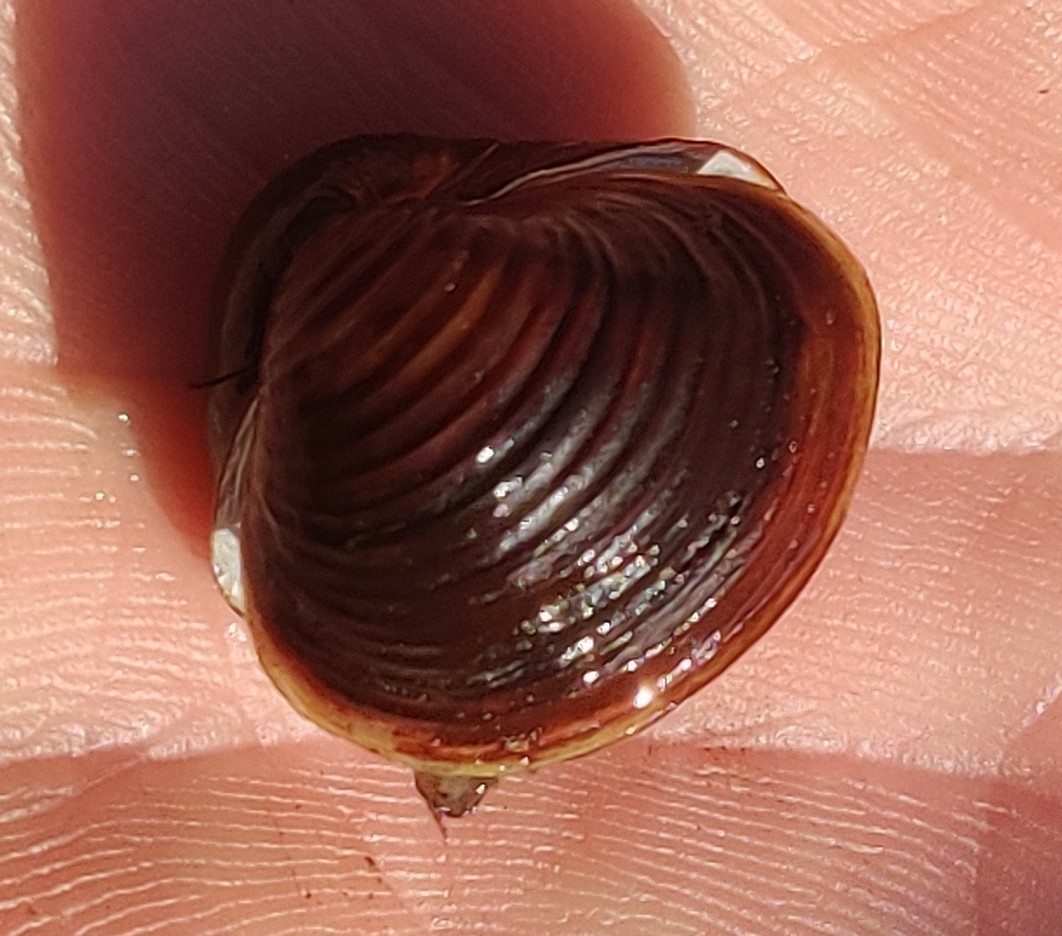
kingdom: Animalia
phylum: Mollusca
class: Bivalvia
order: Venerida
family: Cyrenidae
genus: Corbicula
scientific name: Corbicula fluminea
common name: Asian clam
